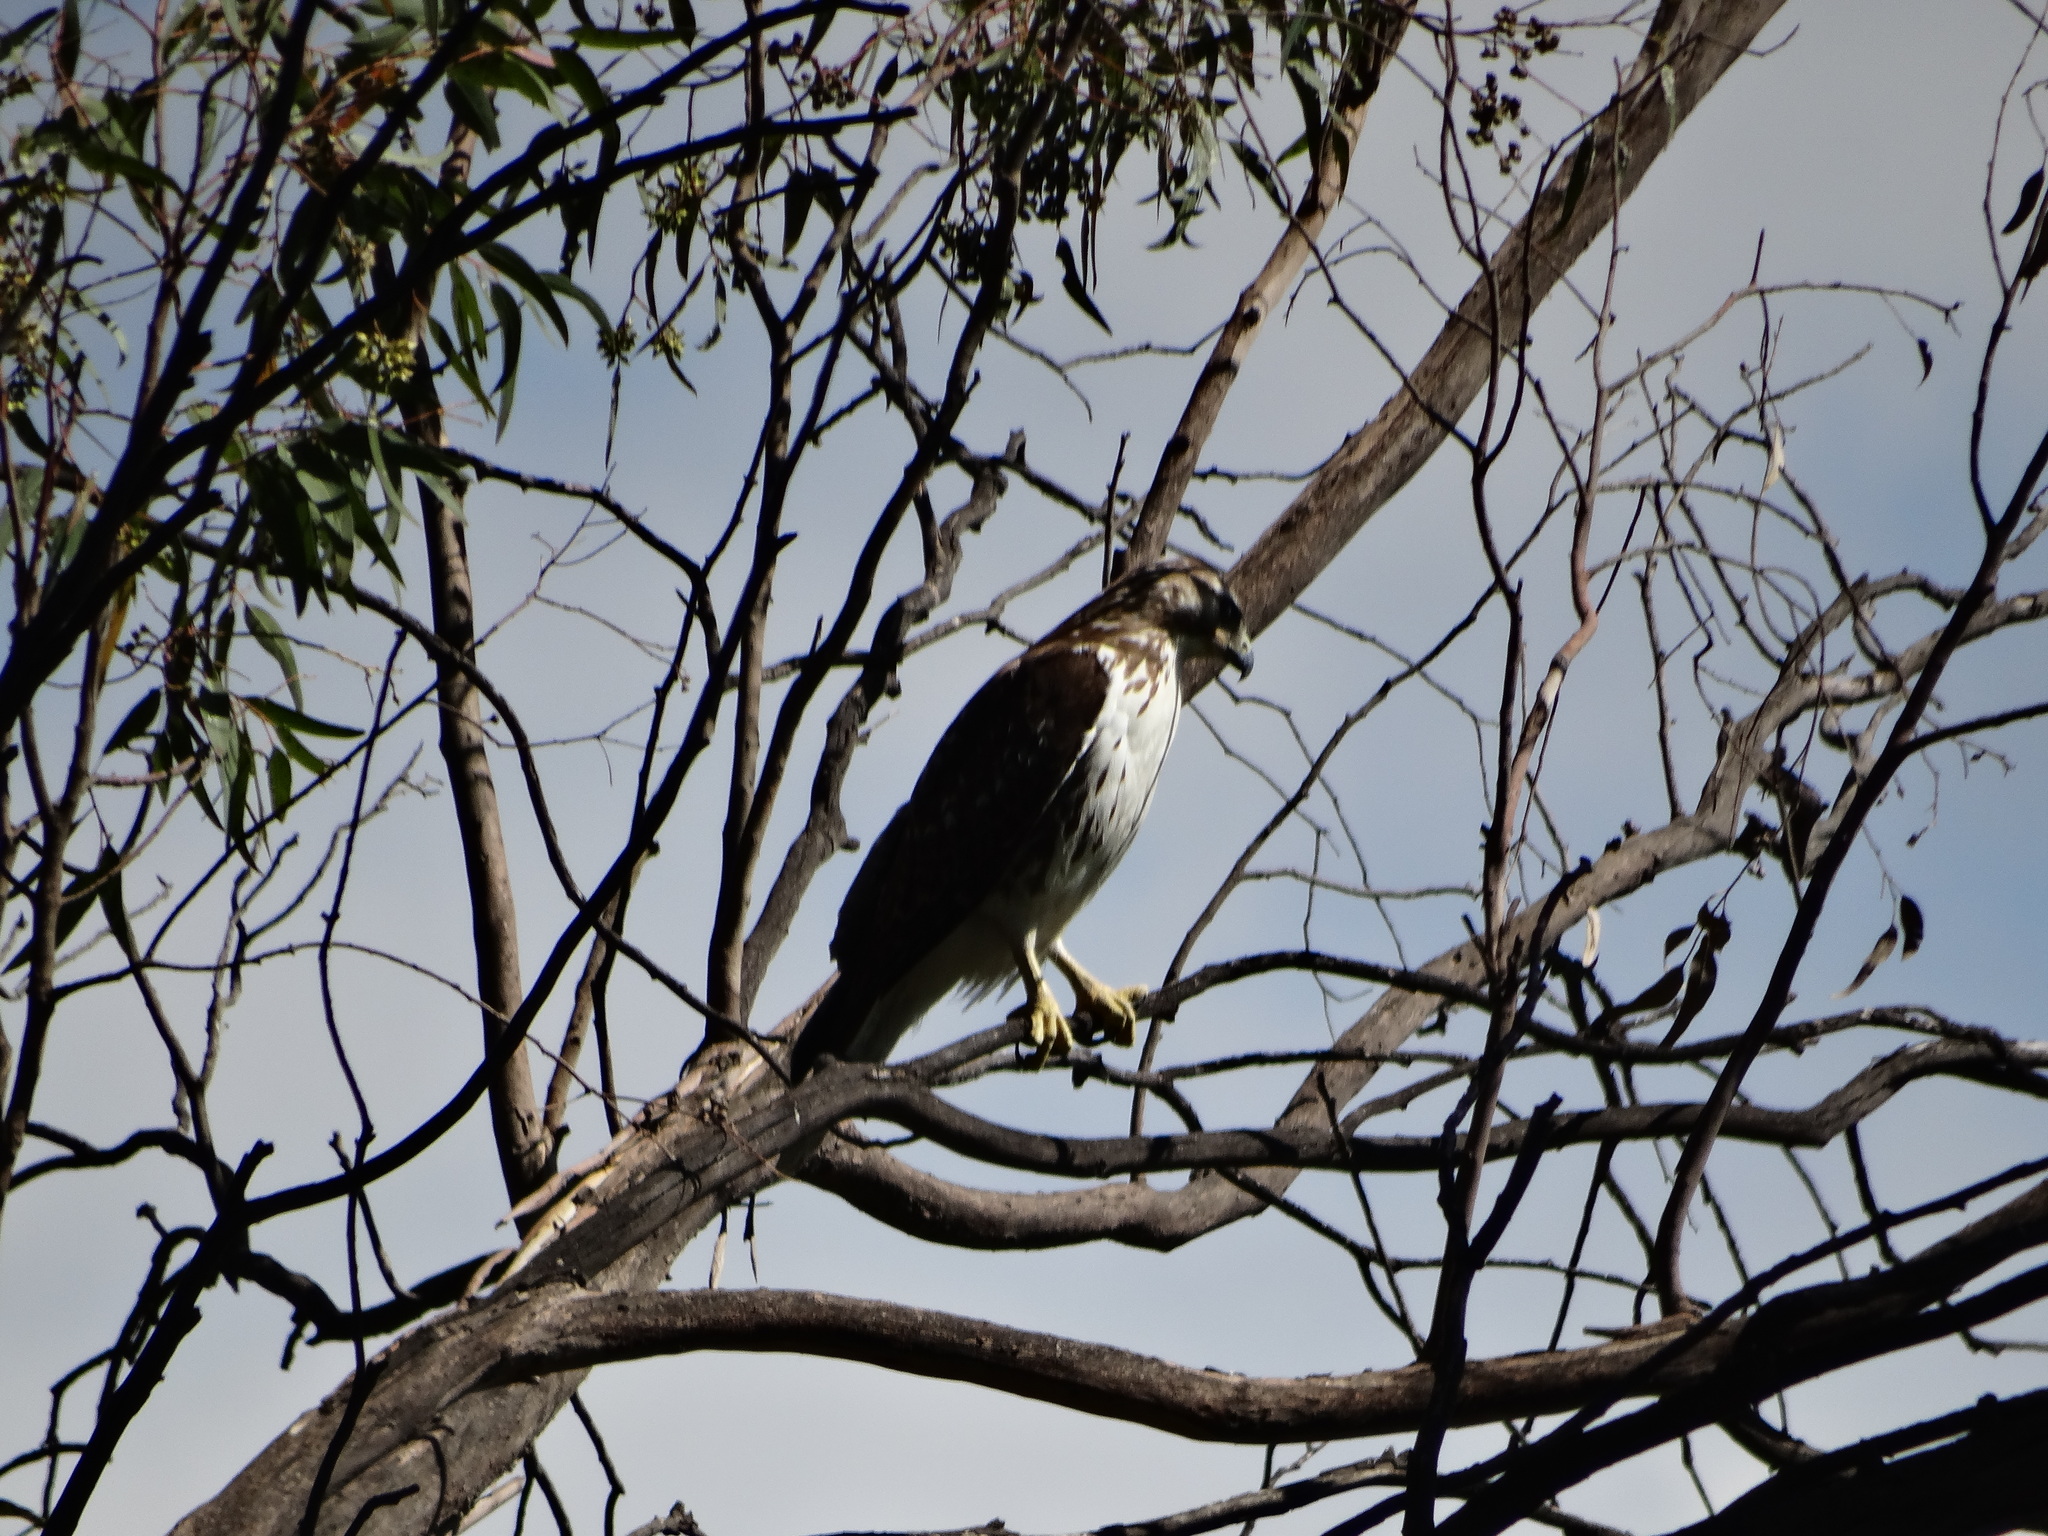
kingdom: Animalia
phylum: Chordata
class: Aves
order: Accipitriformes
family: Accipitridae
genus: Buteo
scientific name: Buteo jamaicensis
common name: Red-tailed hawk
